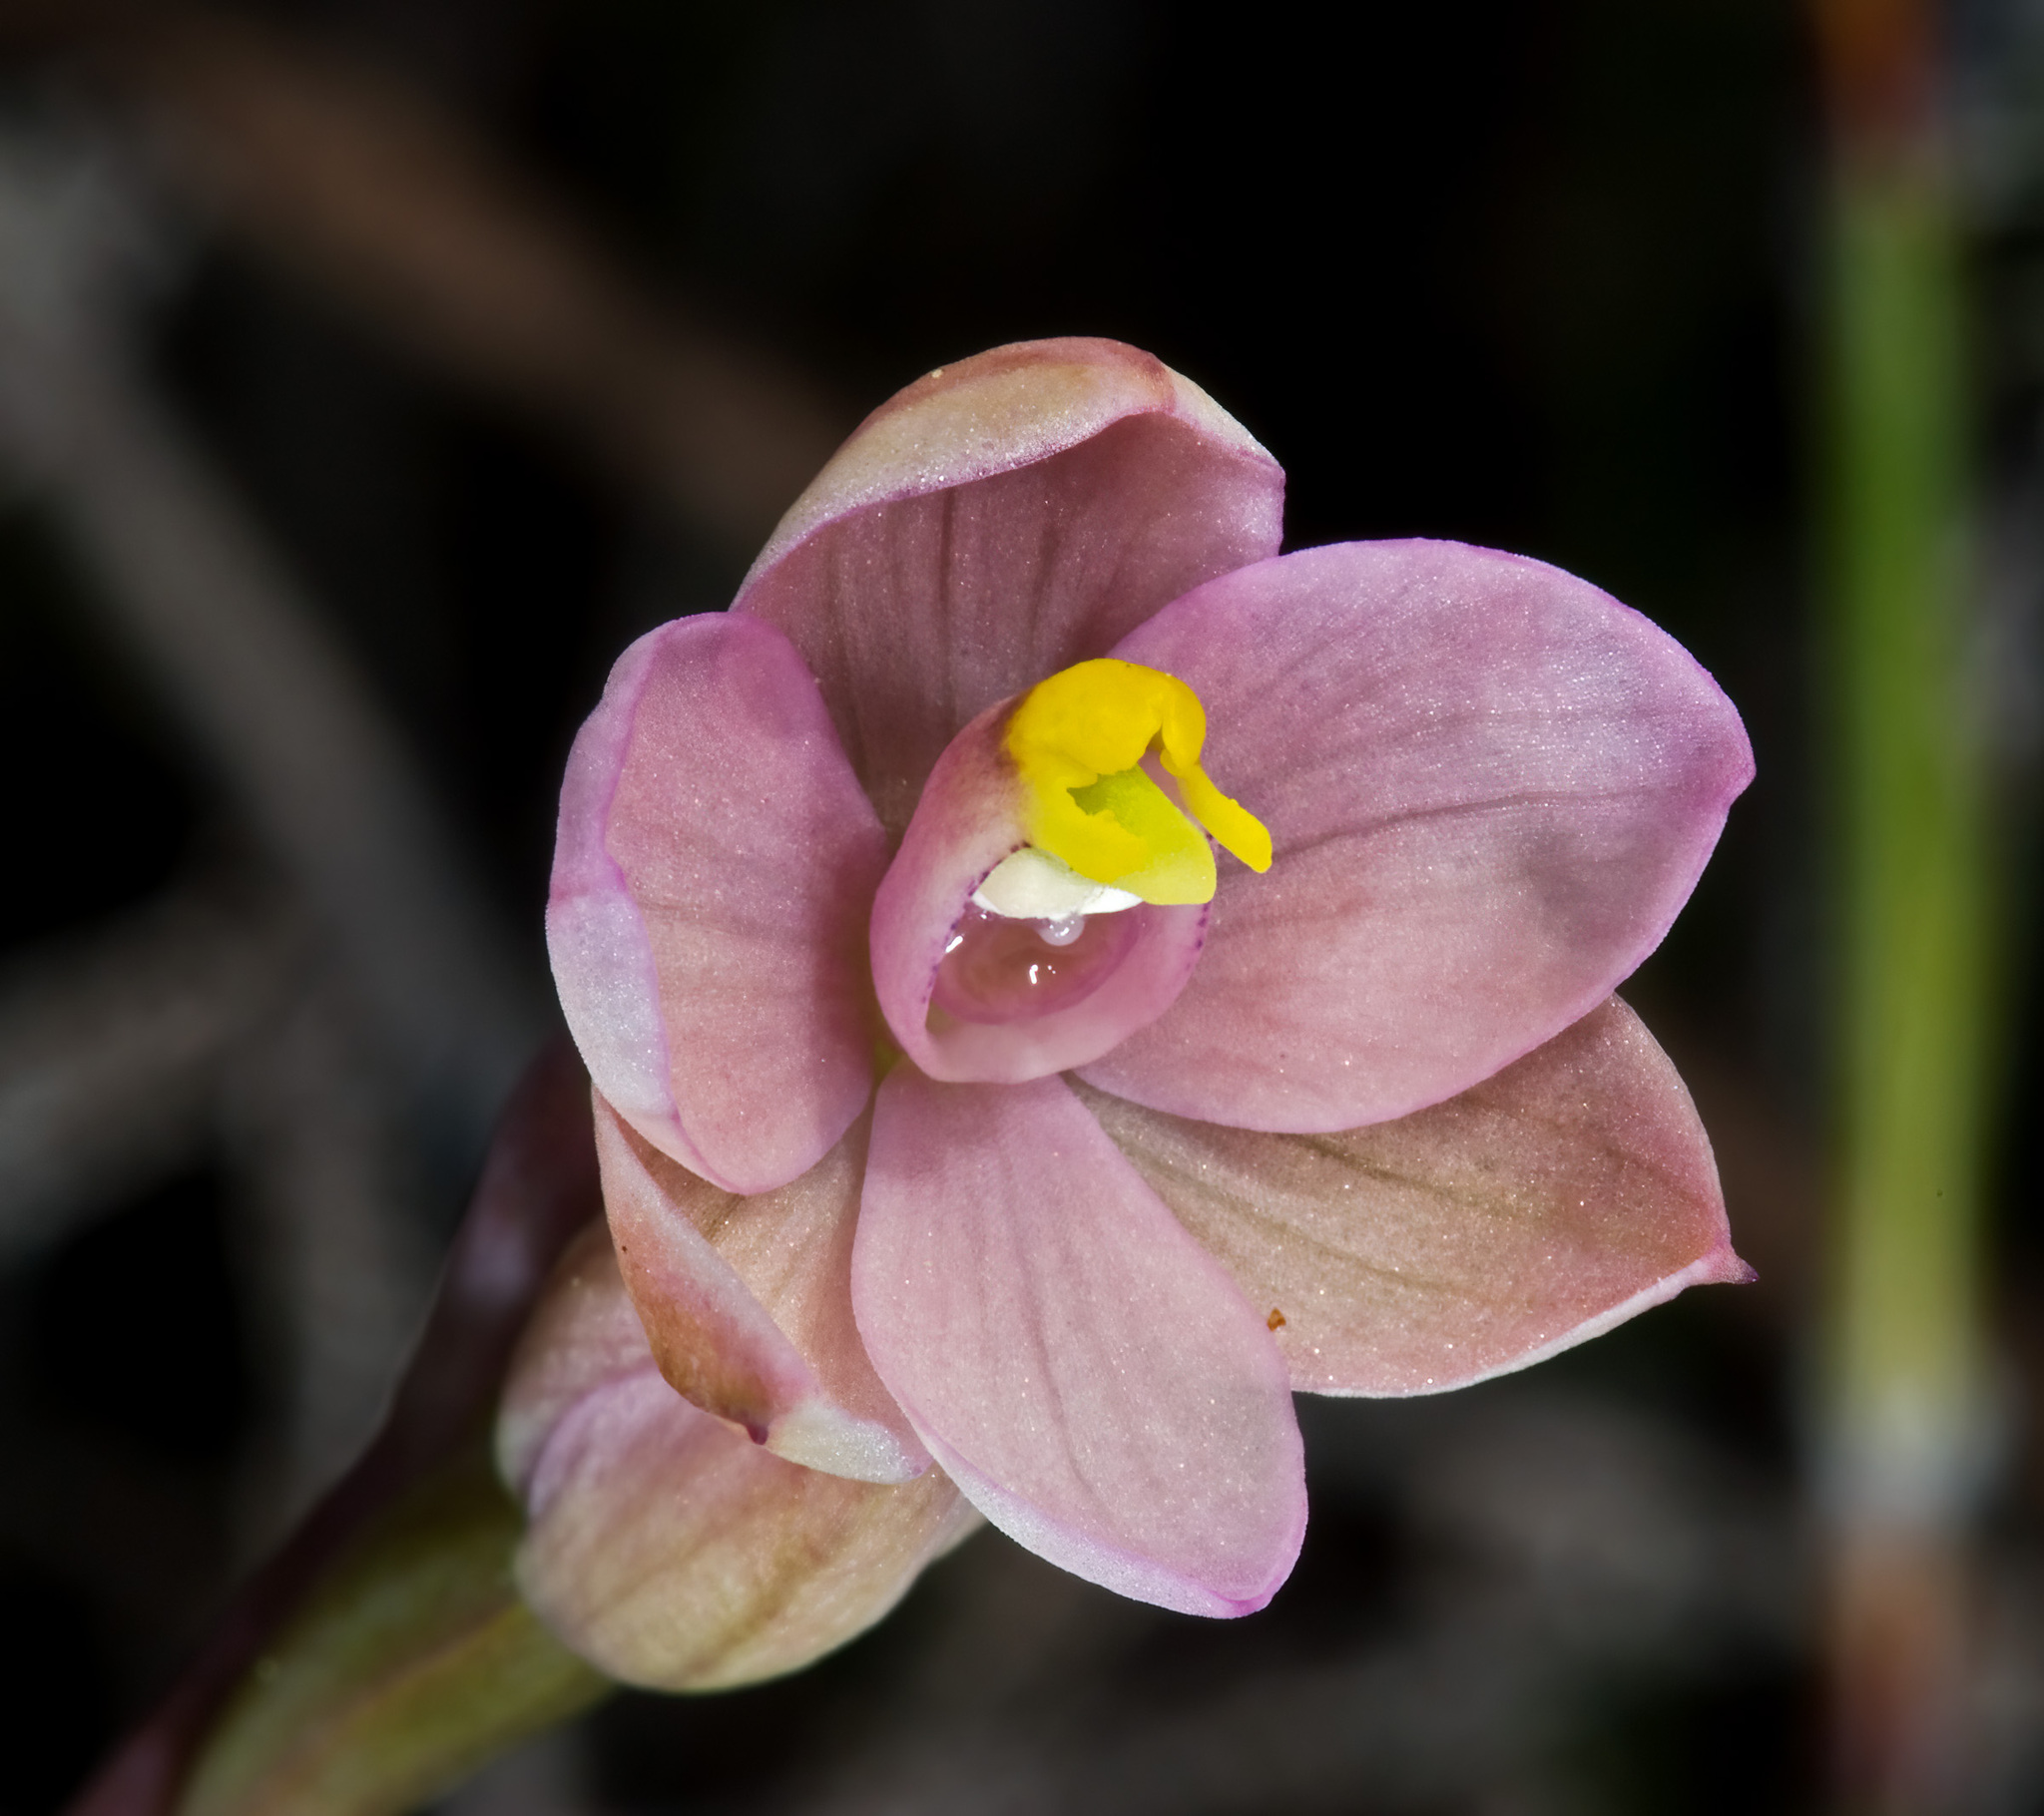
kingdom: Plantae
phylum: Tracheophyta
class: Liliopsida
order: Asparagales
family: Orchidaceae
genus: Thelymitra
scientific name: Thelymitra carnea
